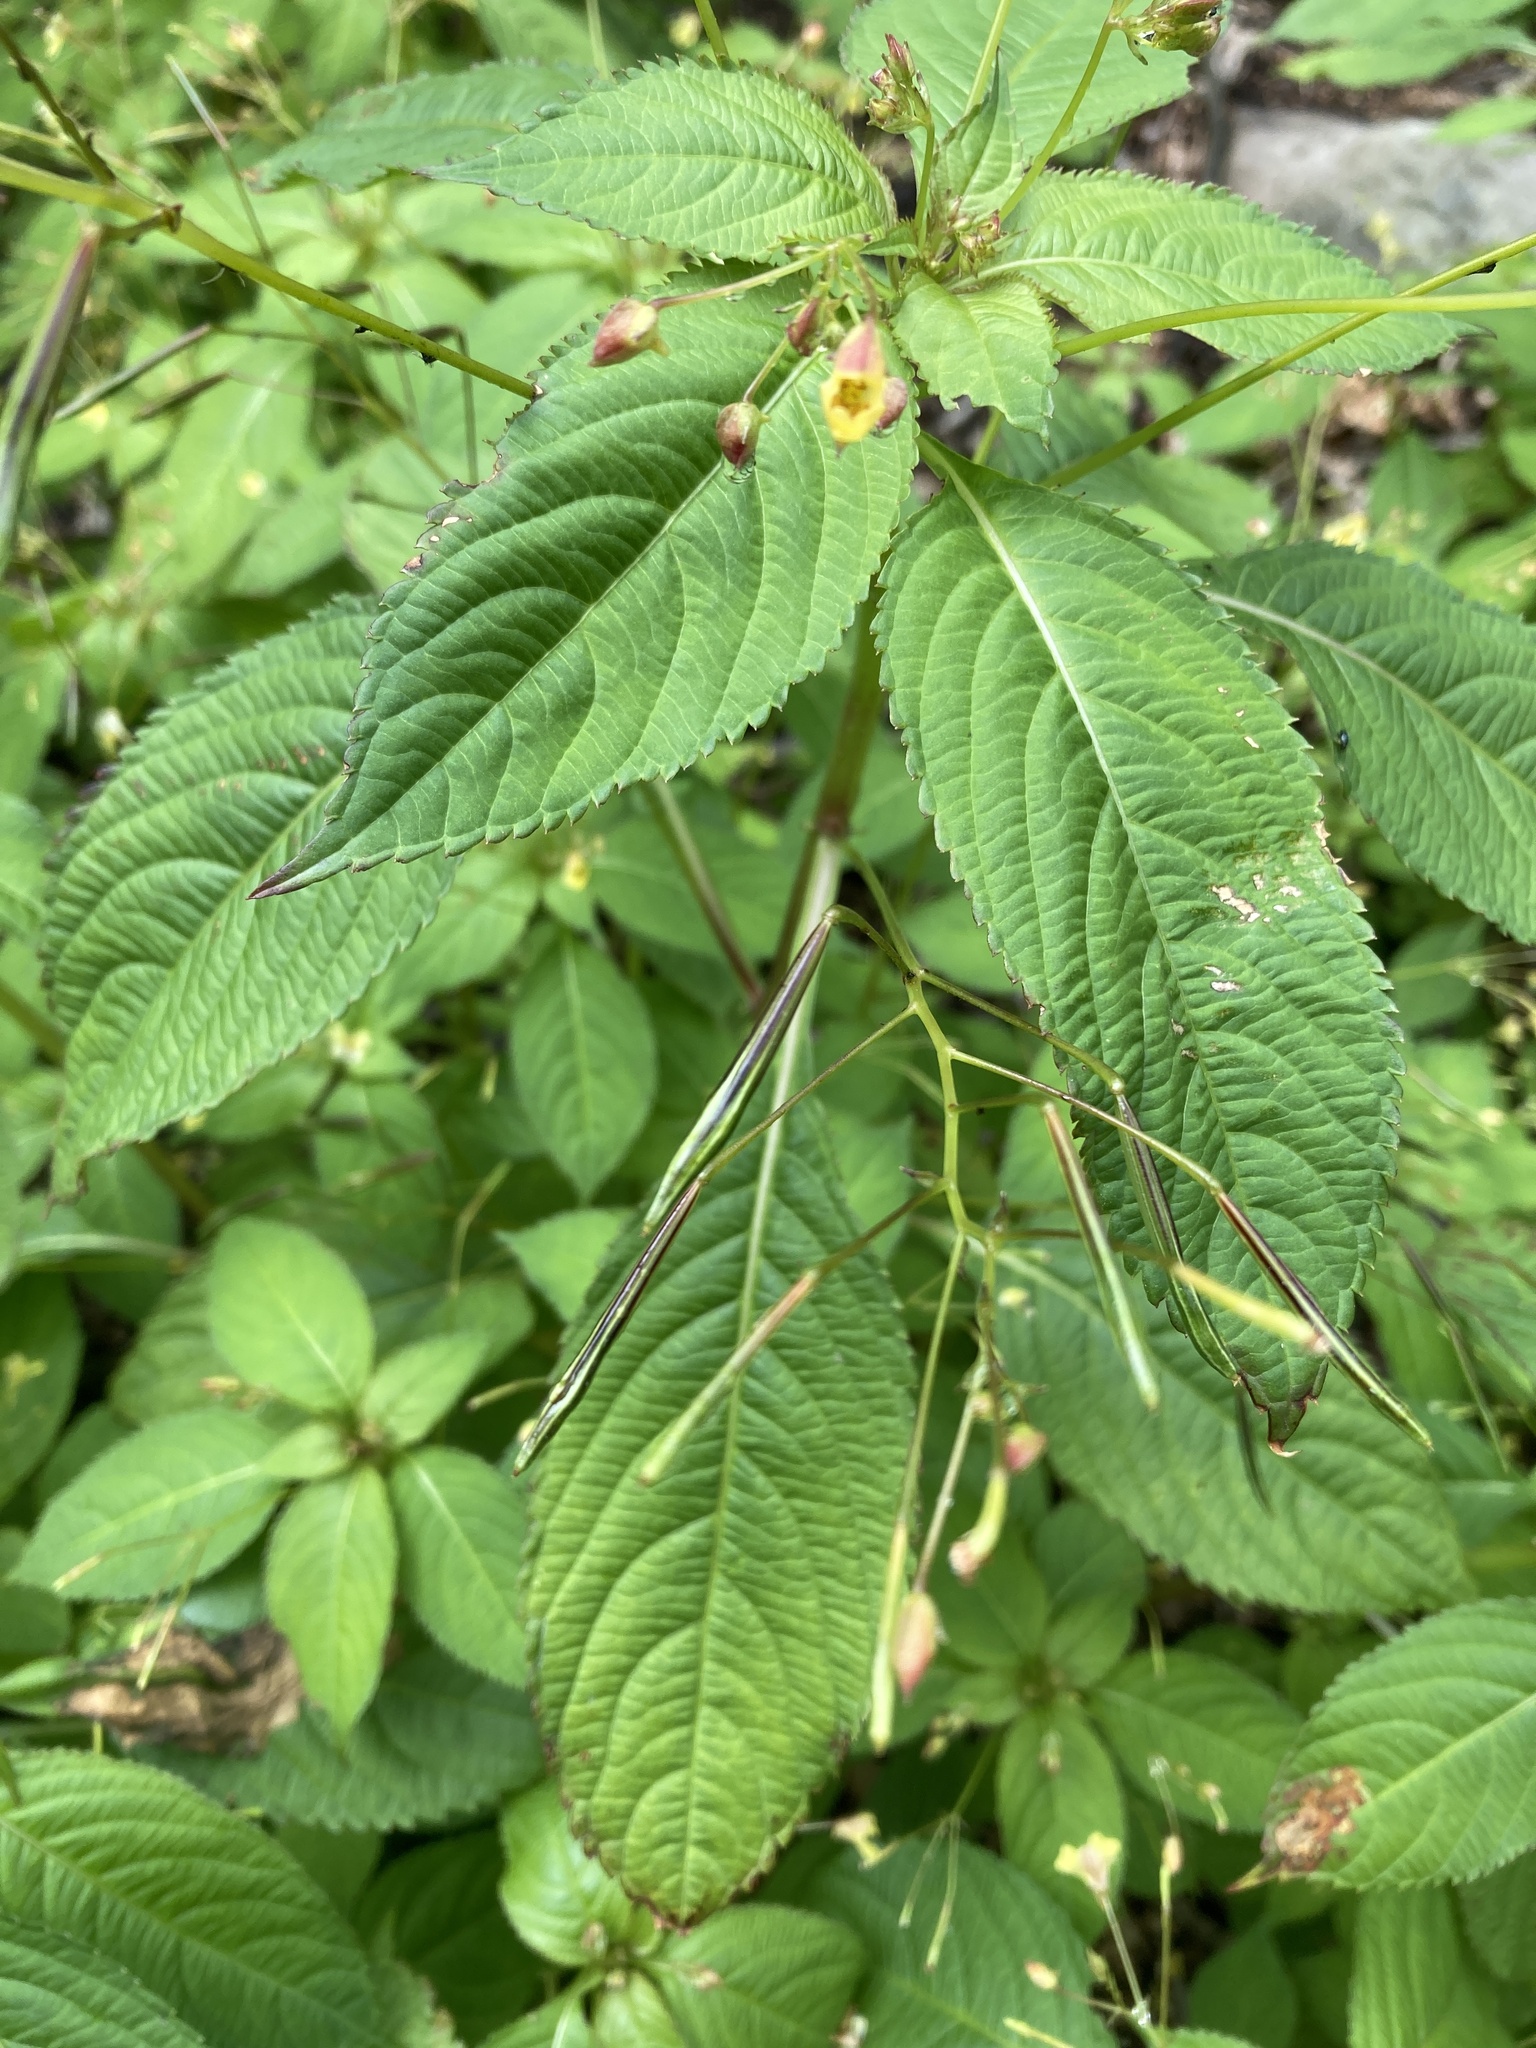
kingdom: Plantae
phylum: Tracheophyta
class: Magnoliopsida
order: Ericales
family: Balsaminaceae
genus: Impatiens
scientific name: Impatiens parviflora
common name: Small balsam
